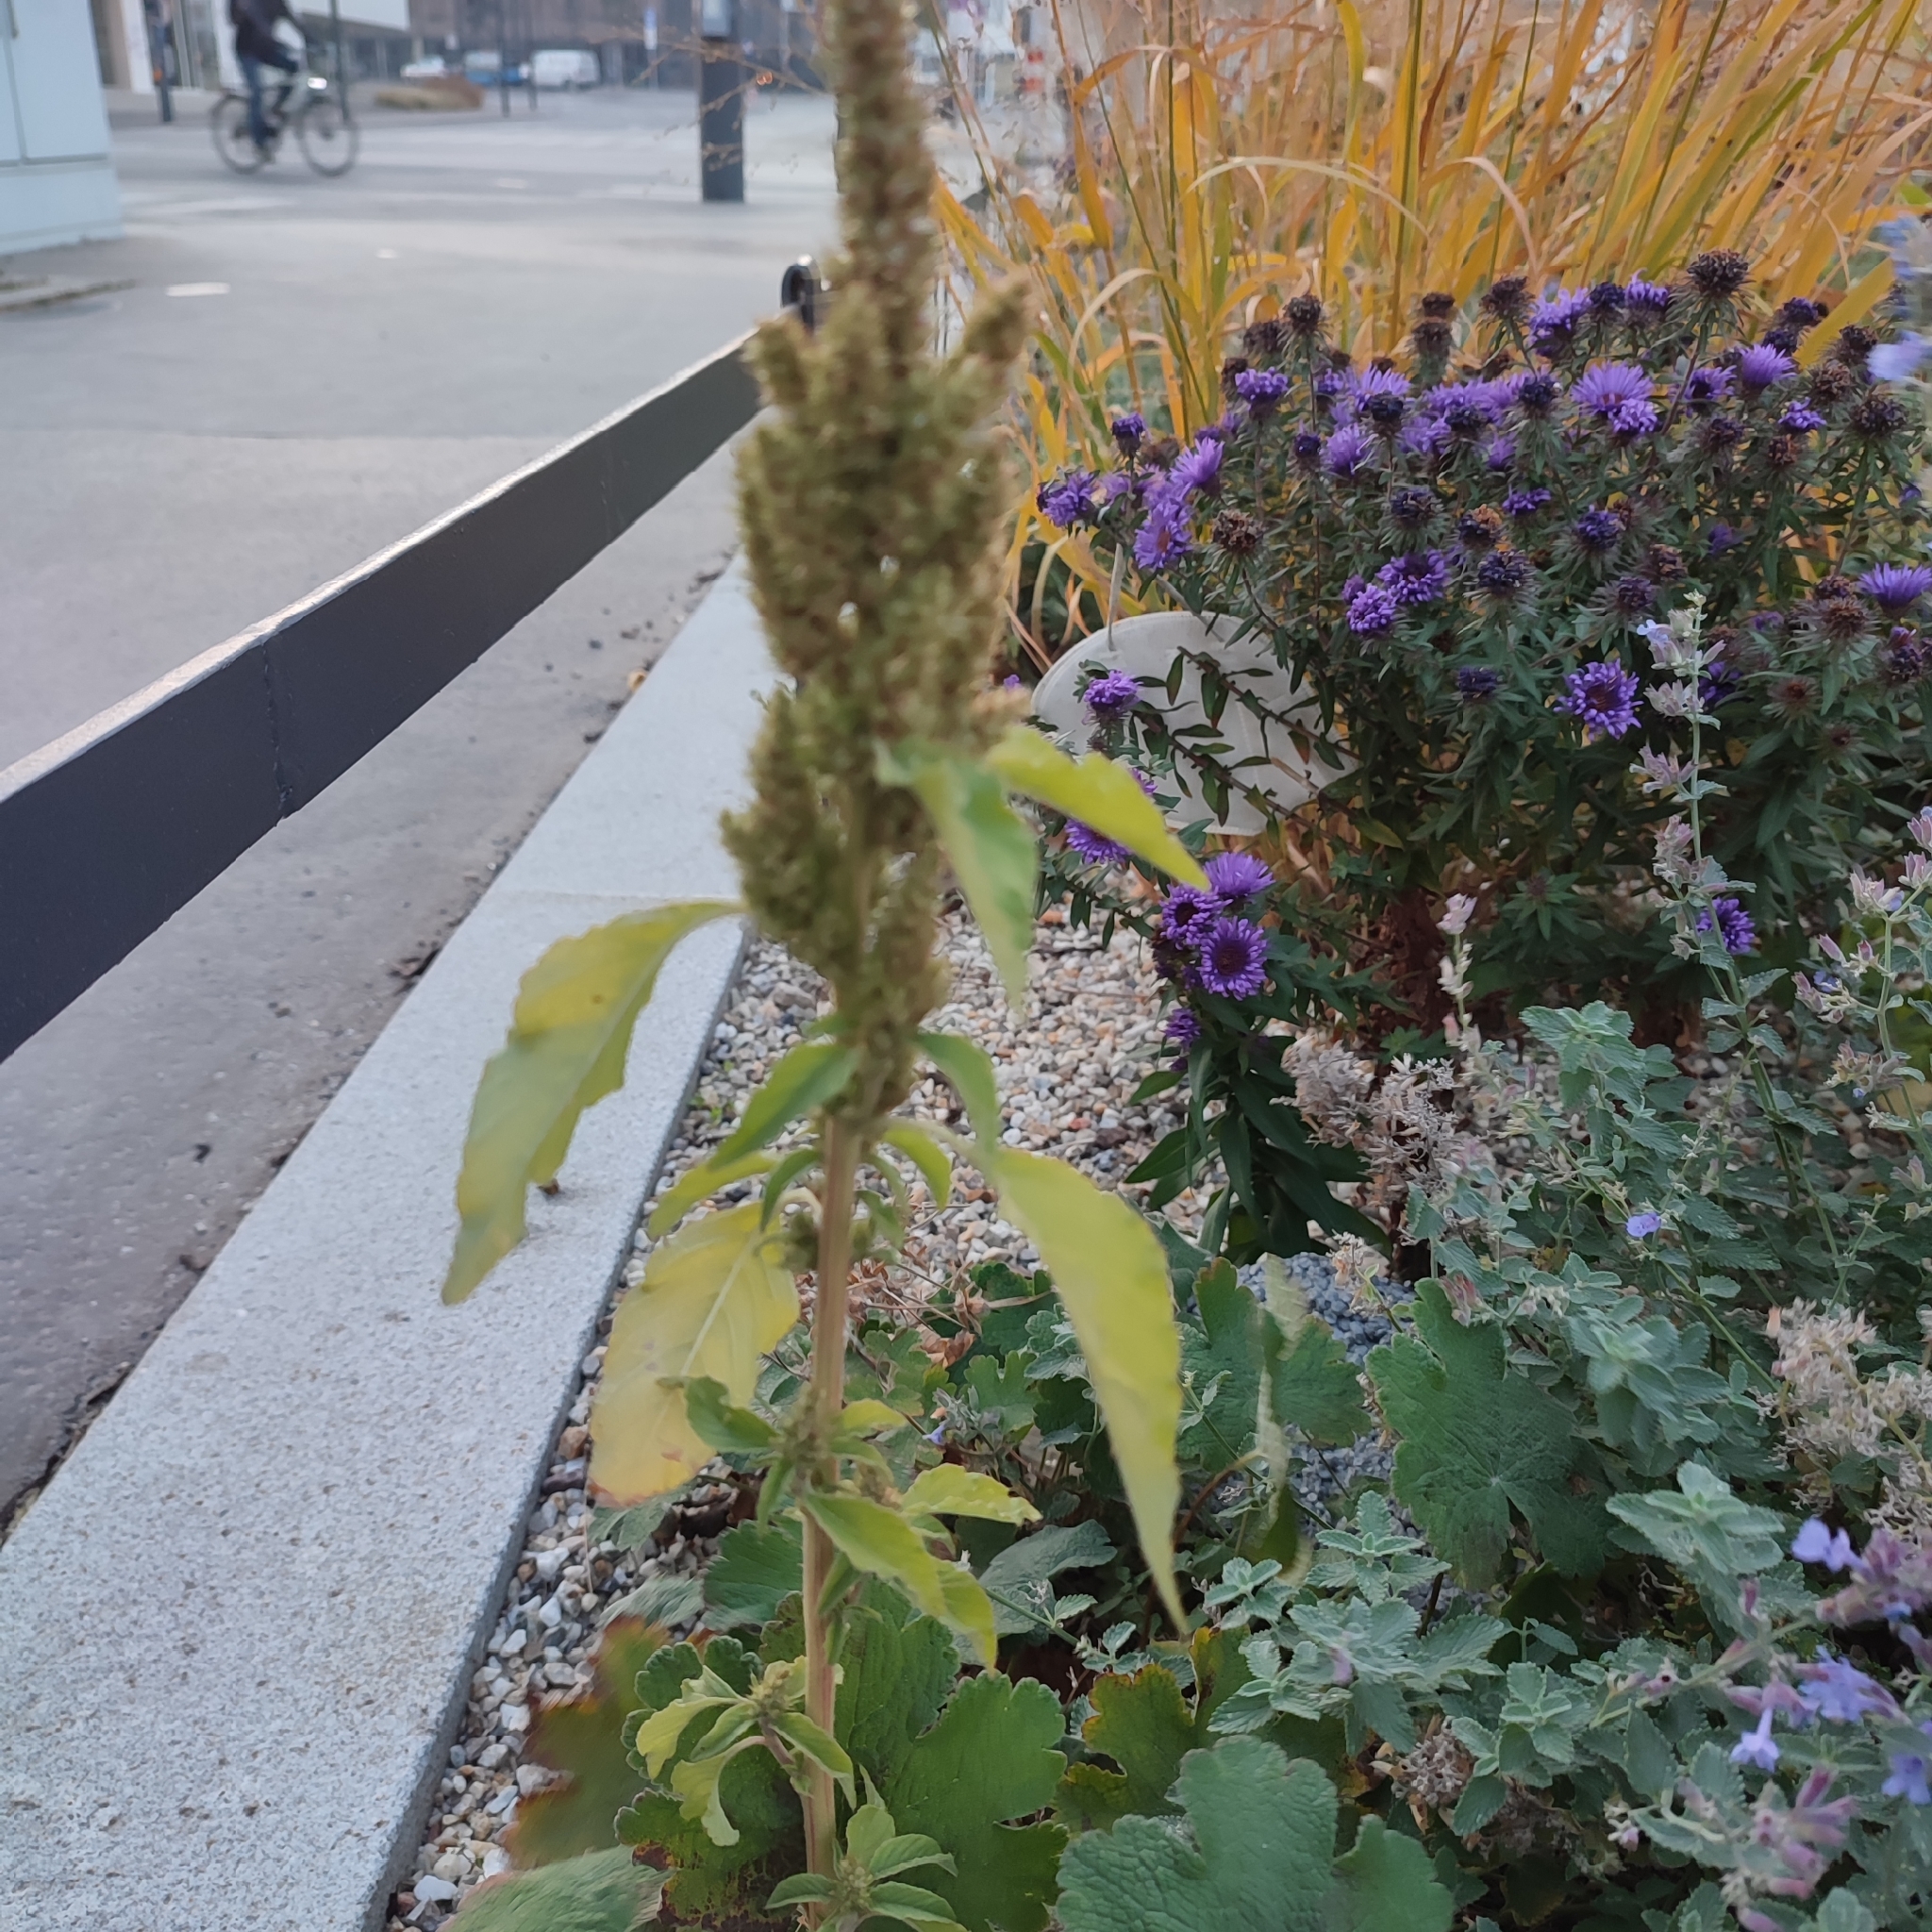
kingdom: Plantae
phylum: Tracheophyta
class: Magnoliopsida
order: Caryophyllales
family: Amaranthaceae
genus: Amaranthus
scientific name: Amaranthus retroflexus
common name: Redroot amaranth
